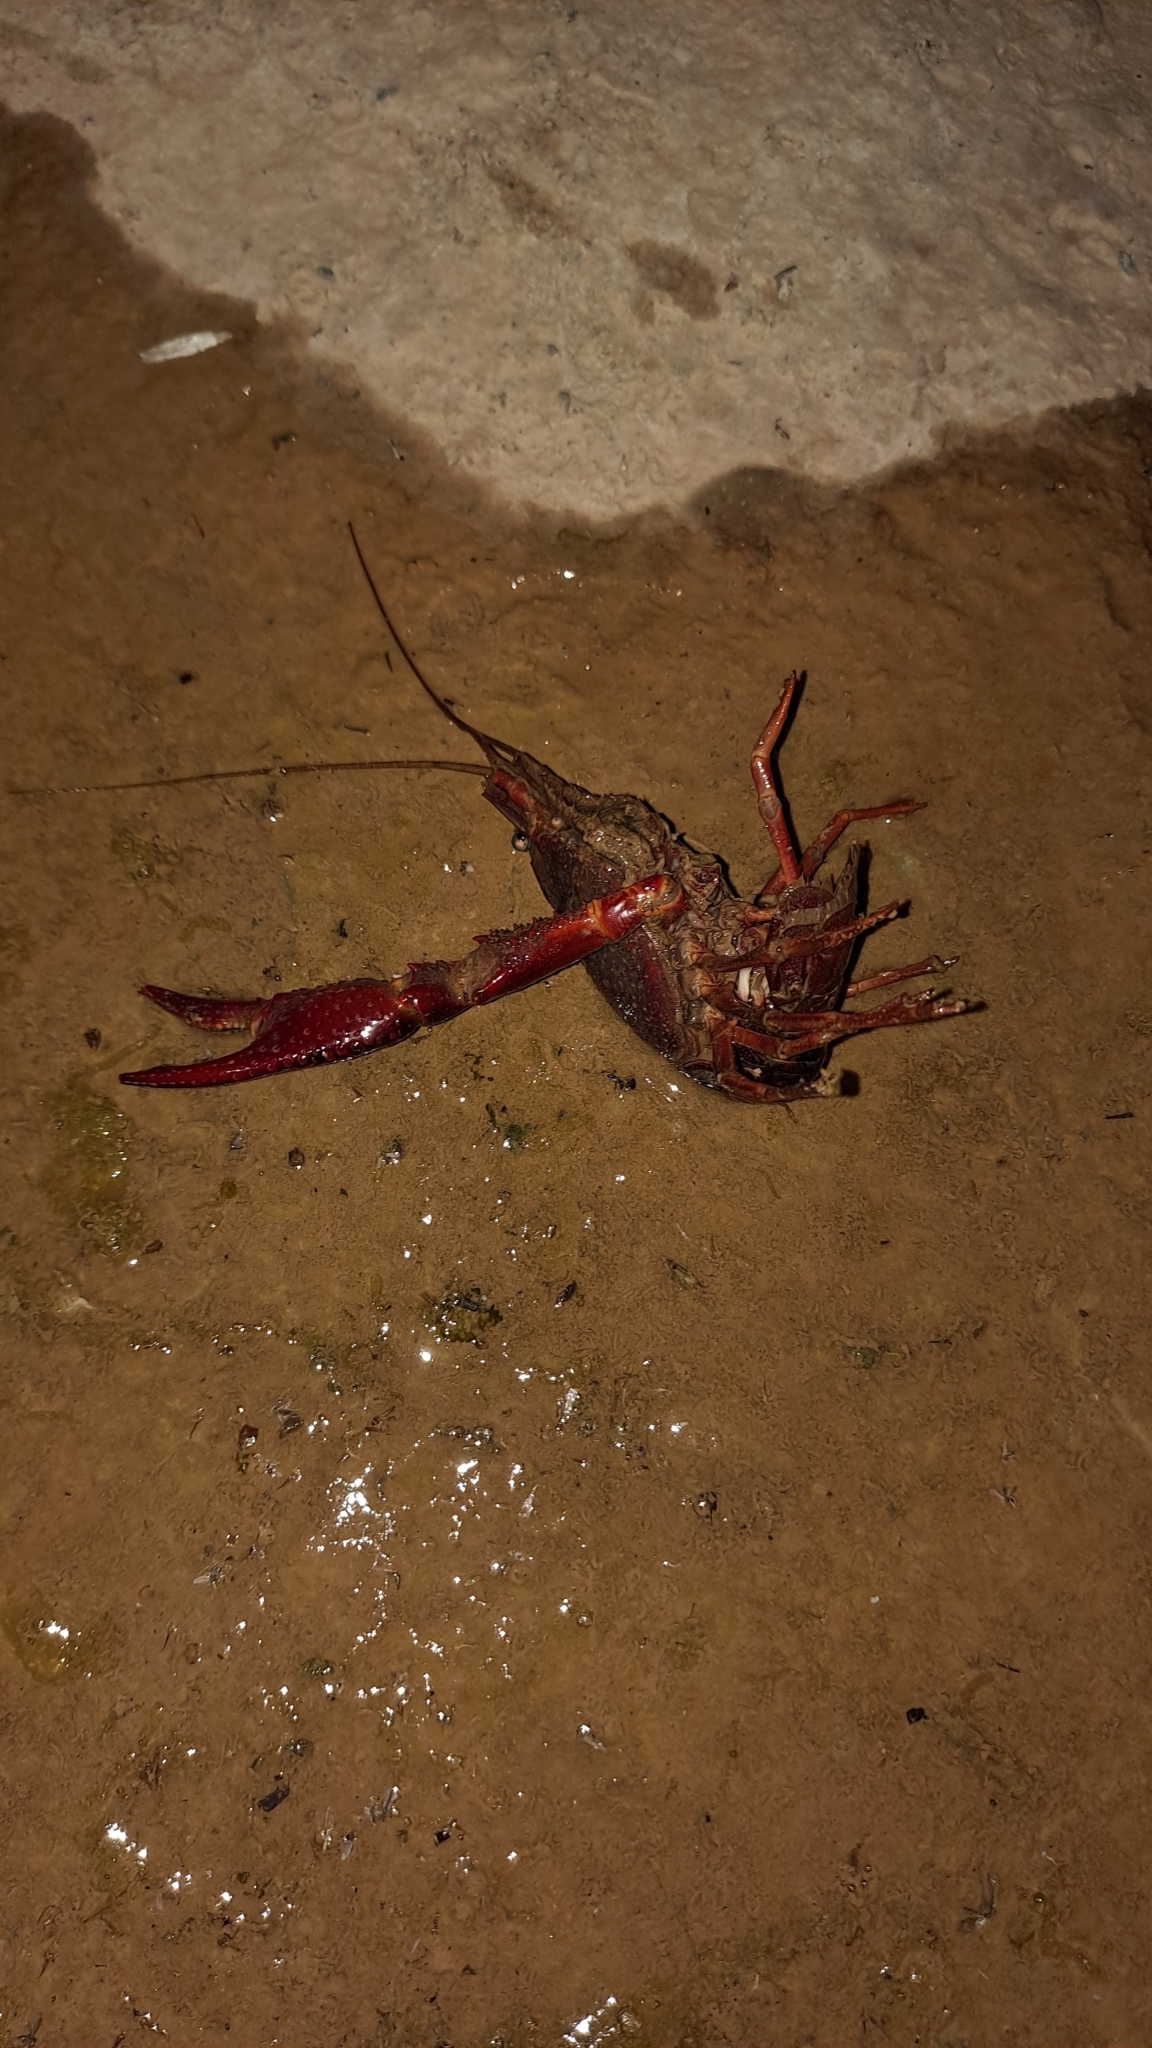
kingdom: Animalia
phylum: Arthropoda
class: Malacostraca
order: Decapoda
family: Cambaridae
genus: Procambarus
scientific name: Procambarus clarkii
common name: Red swamp crayfish
